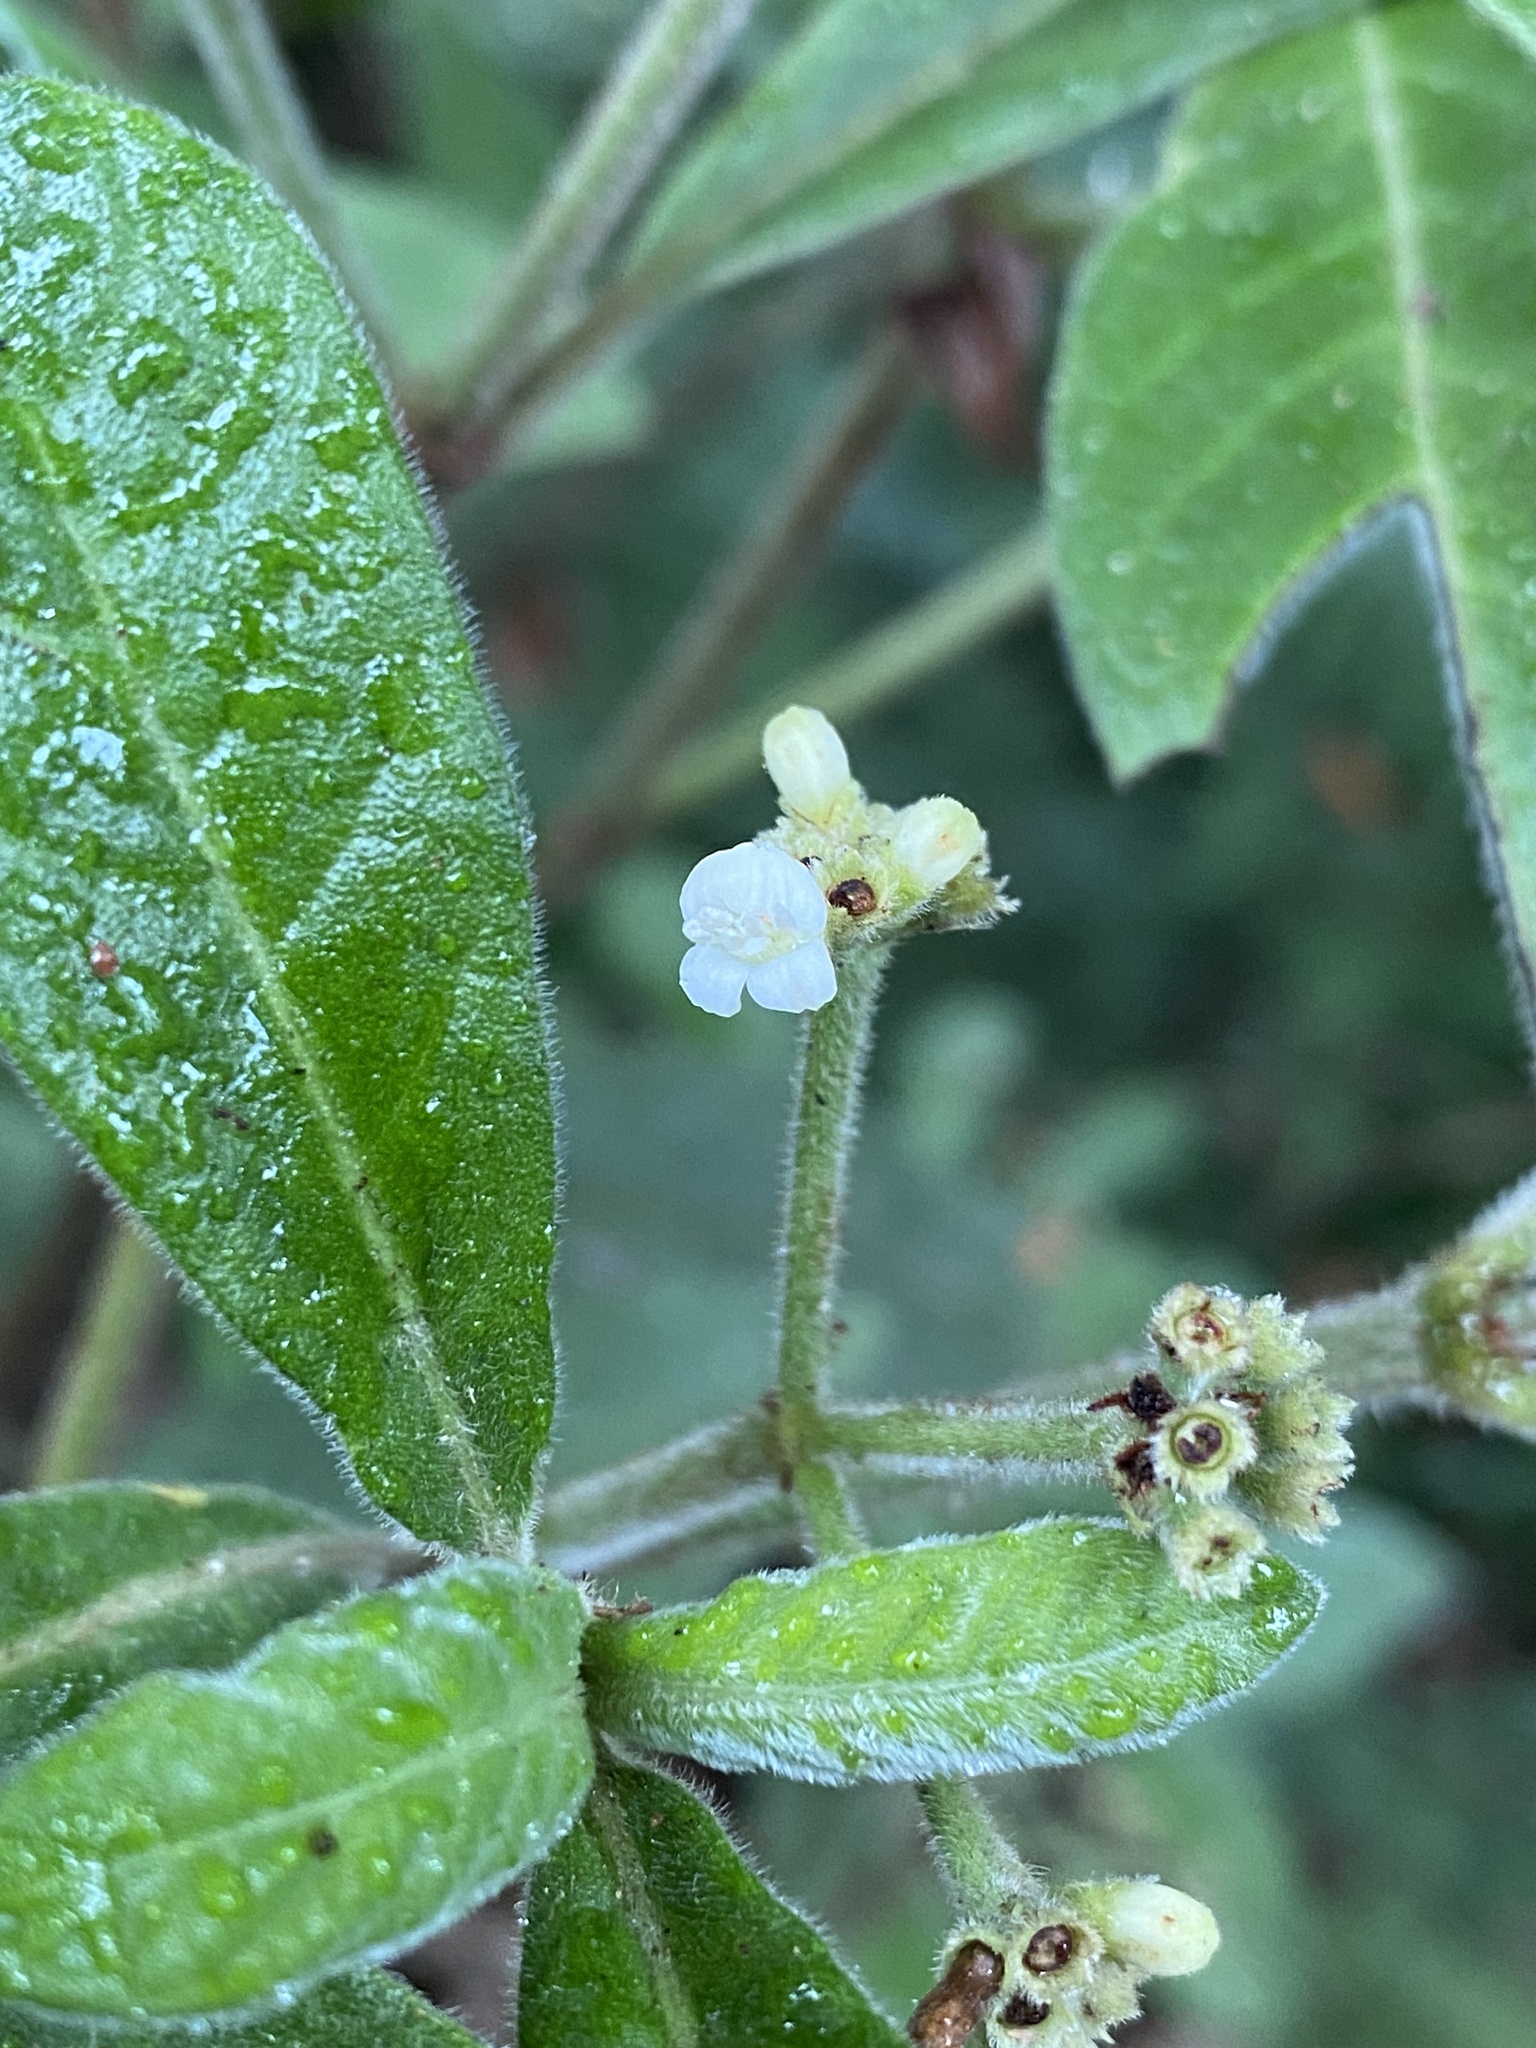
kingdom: Plantae
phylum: Tracheophyta
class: Magnoliopsida
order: Gentianales
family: Rubiaceae
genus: Psychotria
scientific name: Psychotria loniceroides
